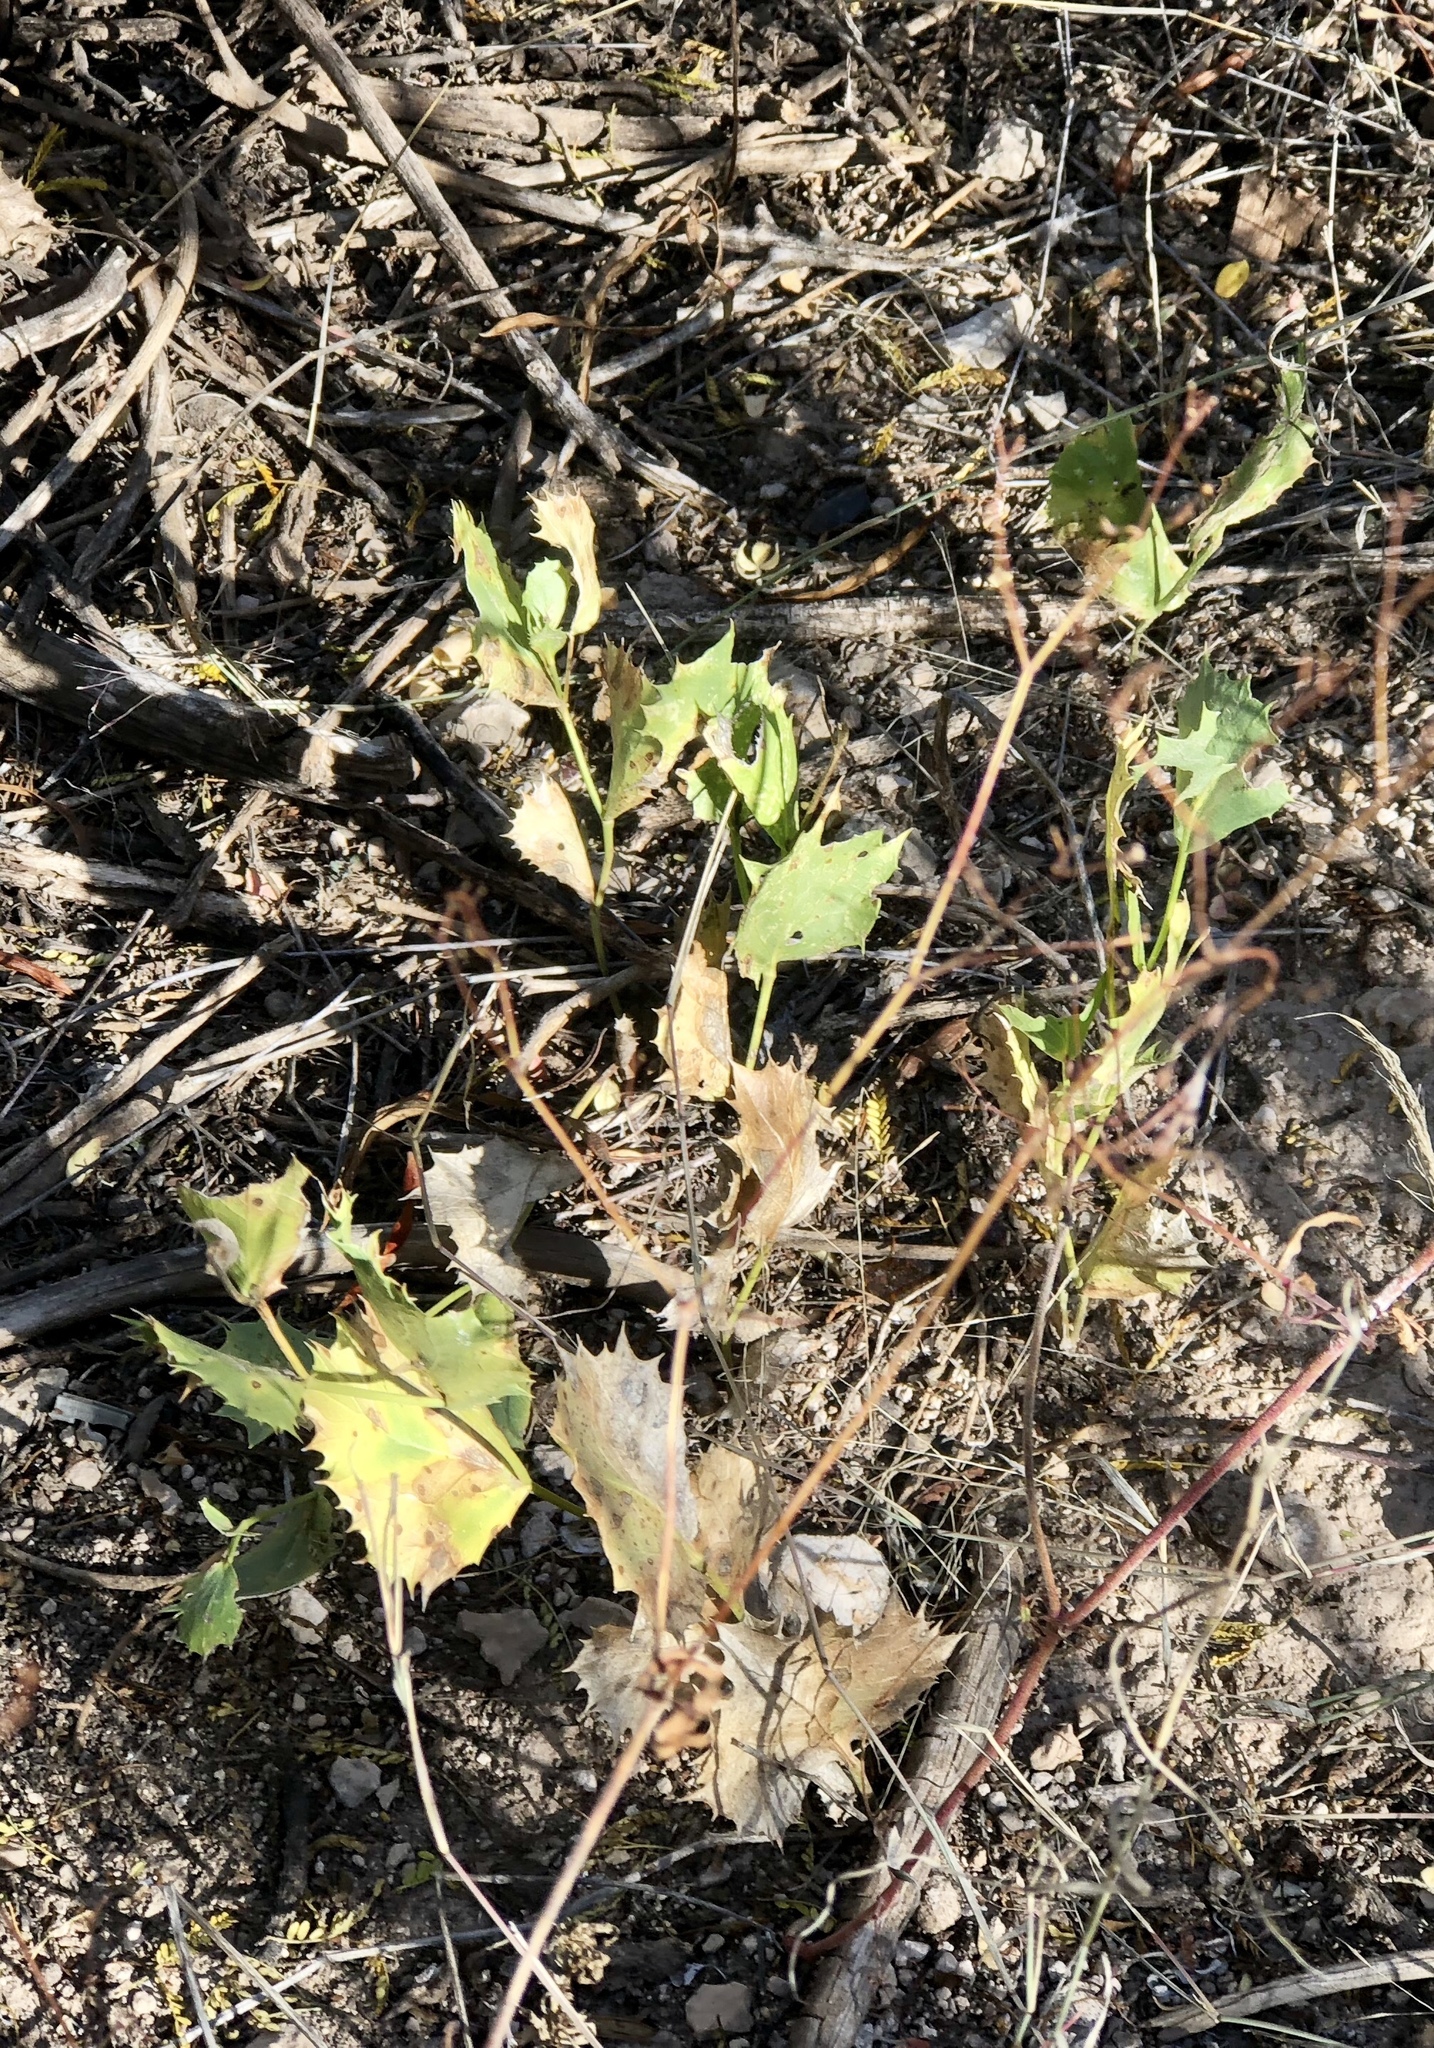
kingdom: Plantae
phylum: Tracheophyta
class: Magnoliopsida
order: Asterales
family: Asteraceae
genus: Acourtia
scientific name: Acourtia nana
